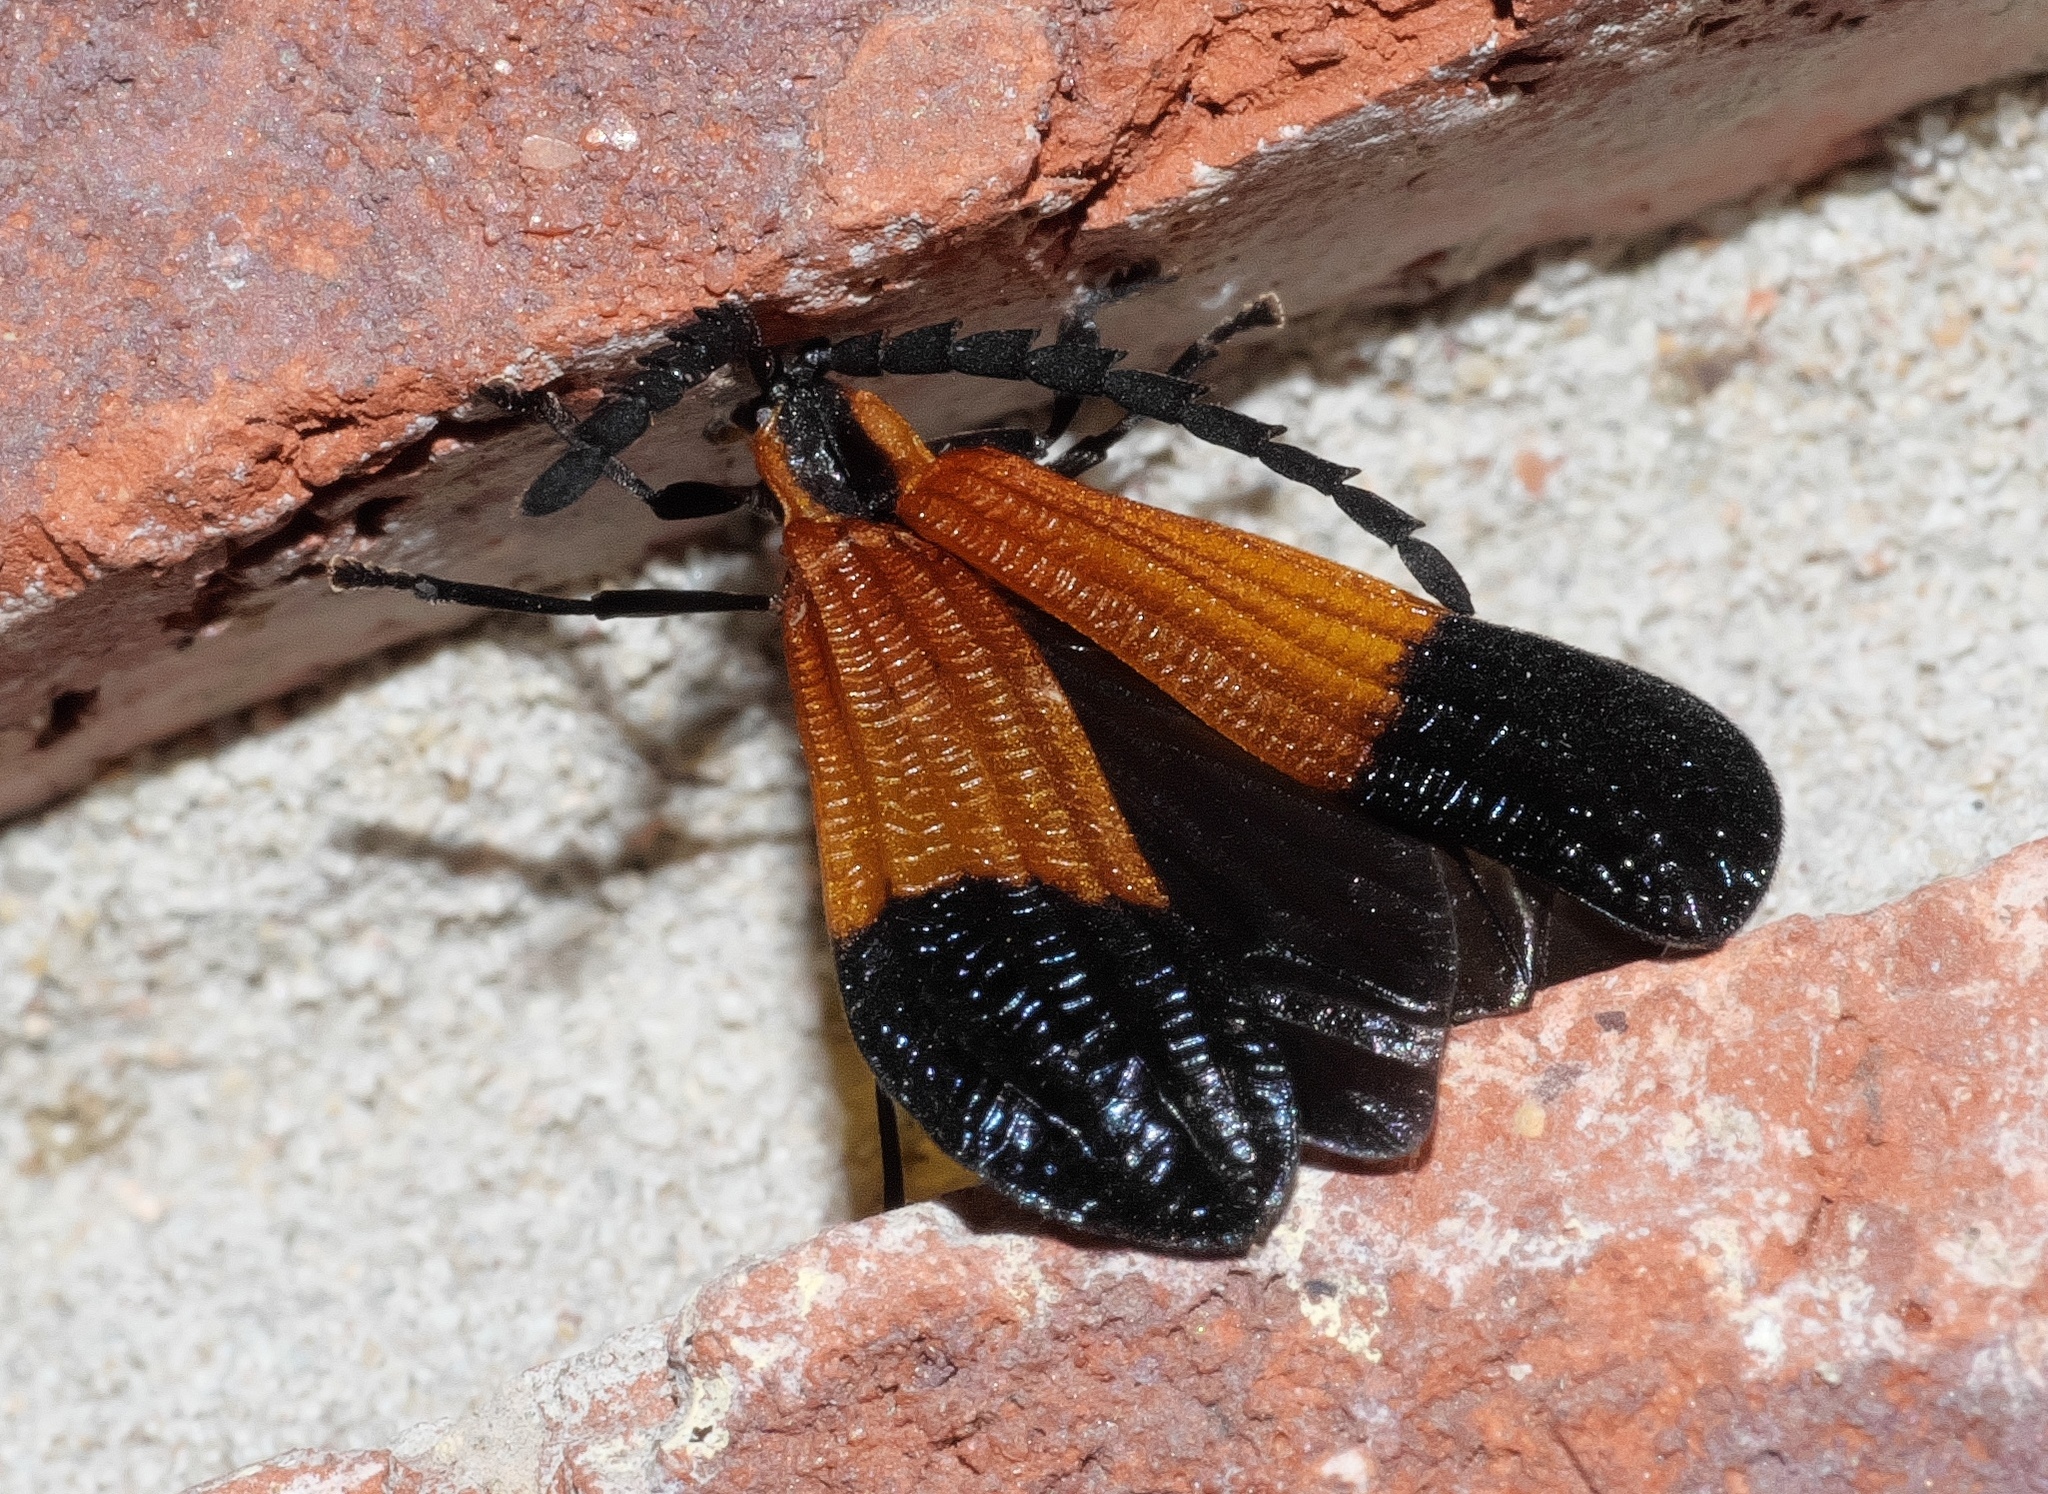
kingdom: Animalia
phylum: Arthropoda
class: Insecta
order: Coleoptera
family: Lycidae
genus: Calopteron
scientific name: Calopteron terminale
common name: End band net-winged beetle
